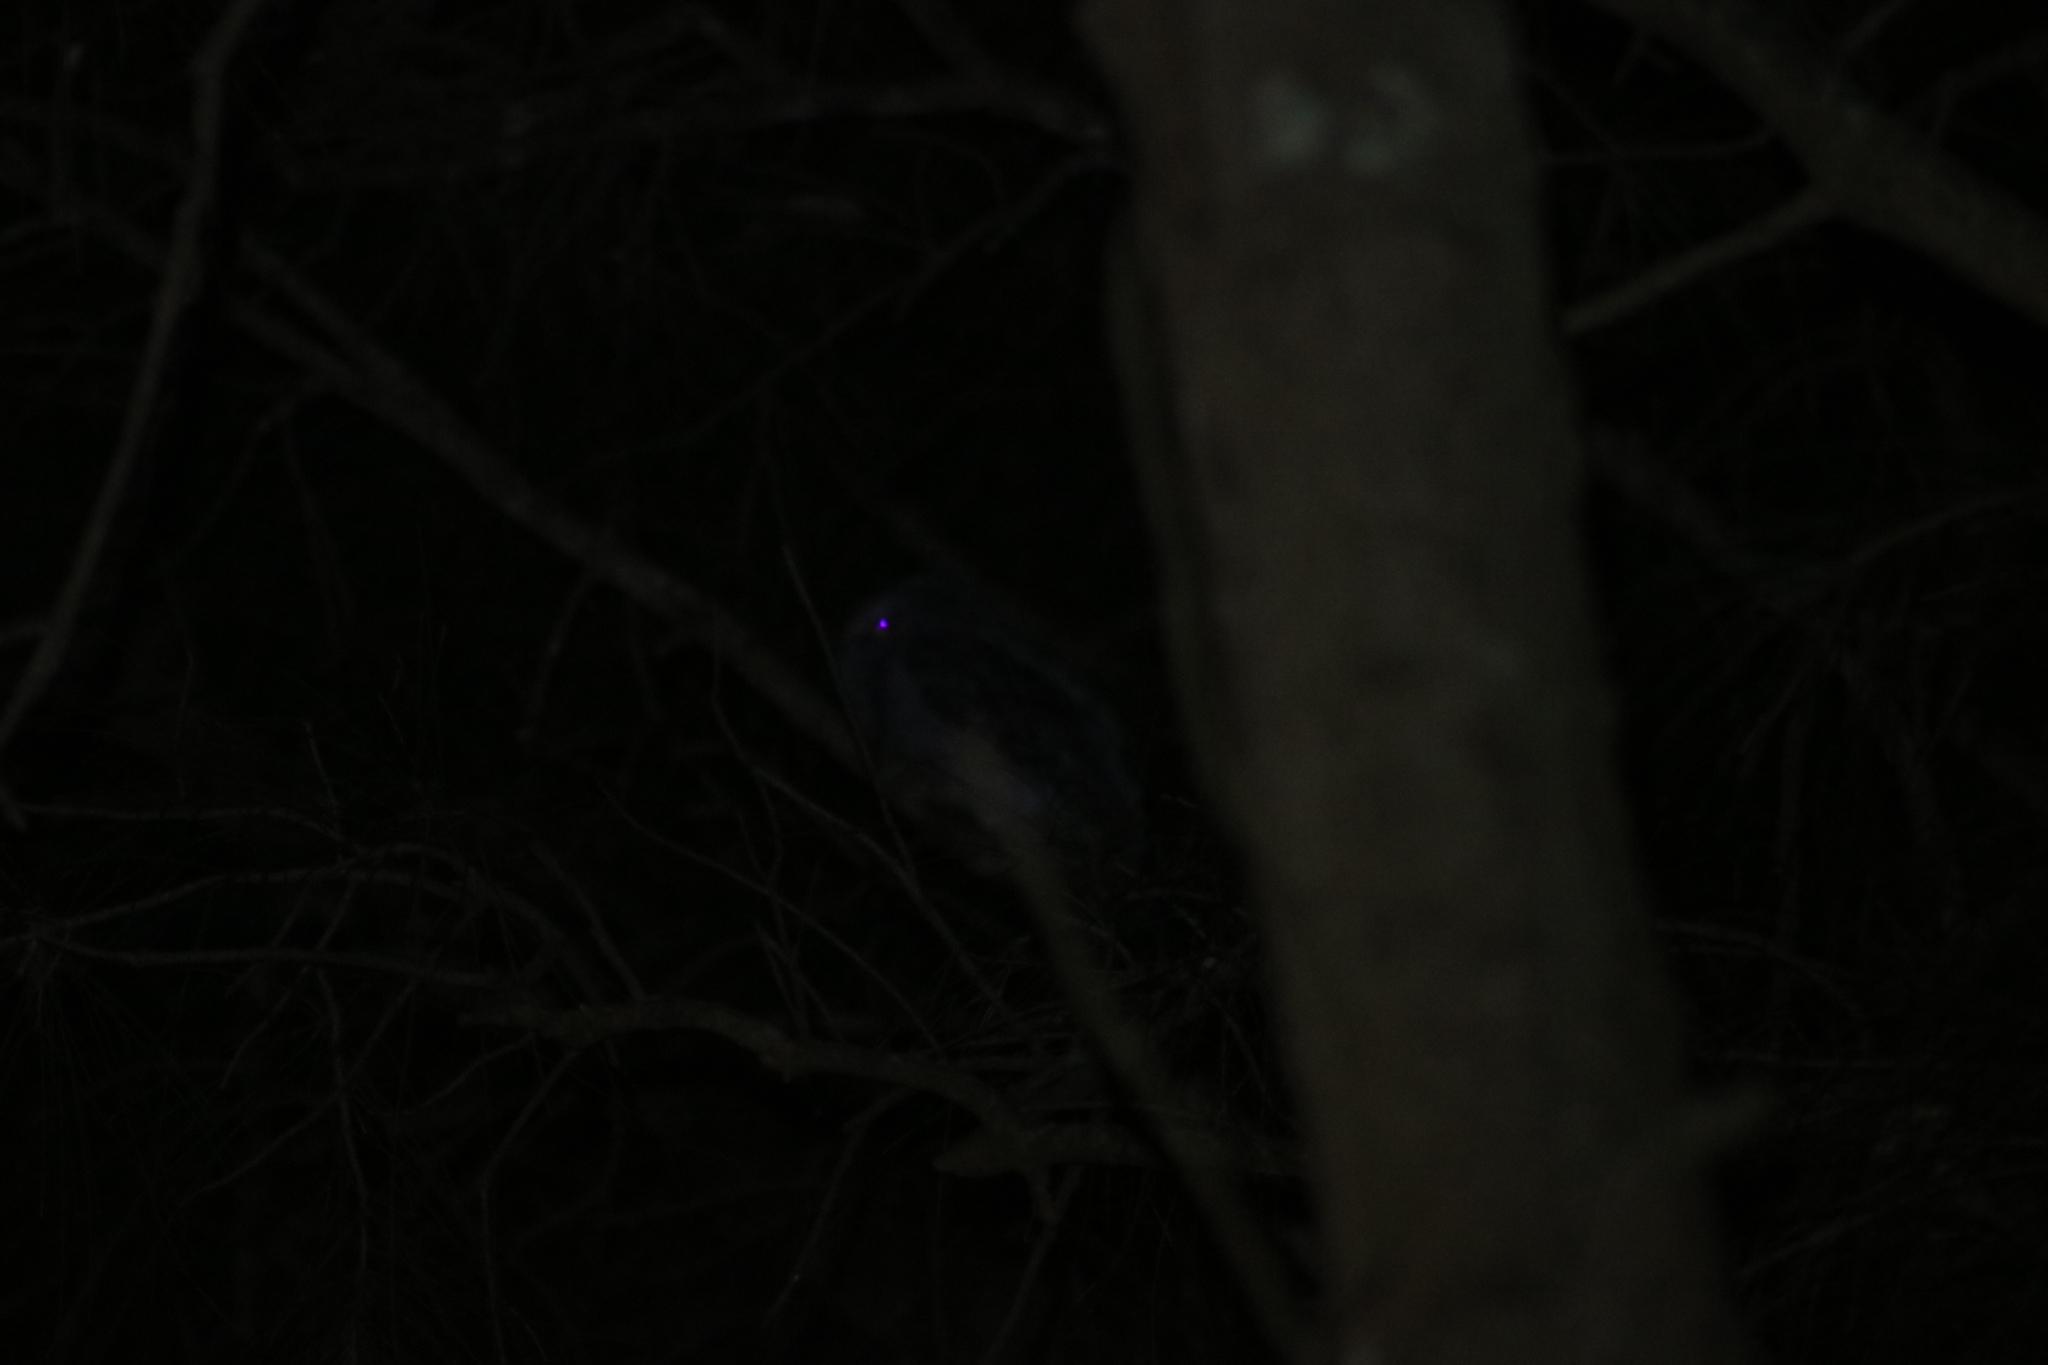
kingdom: Animalia
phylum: Chordata
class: Aves
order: Caprimulgiformes
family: Podargidae
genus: Podargus
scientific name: Podargus strigoides
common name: Tawny frogmouth
